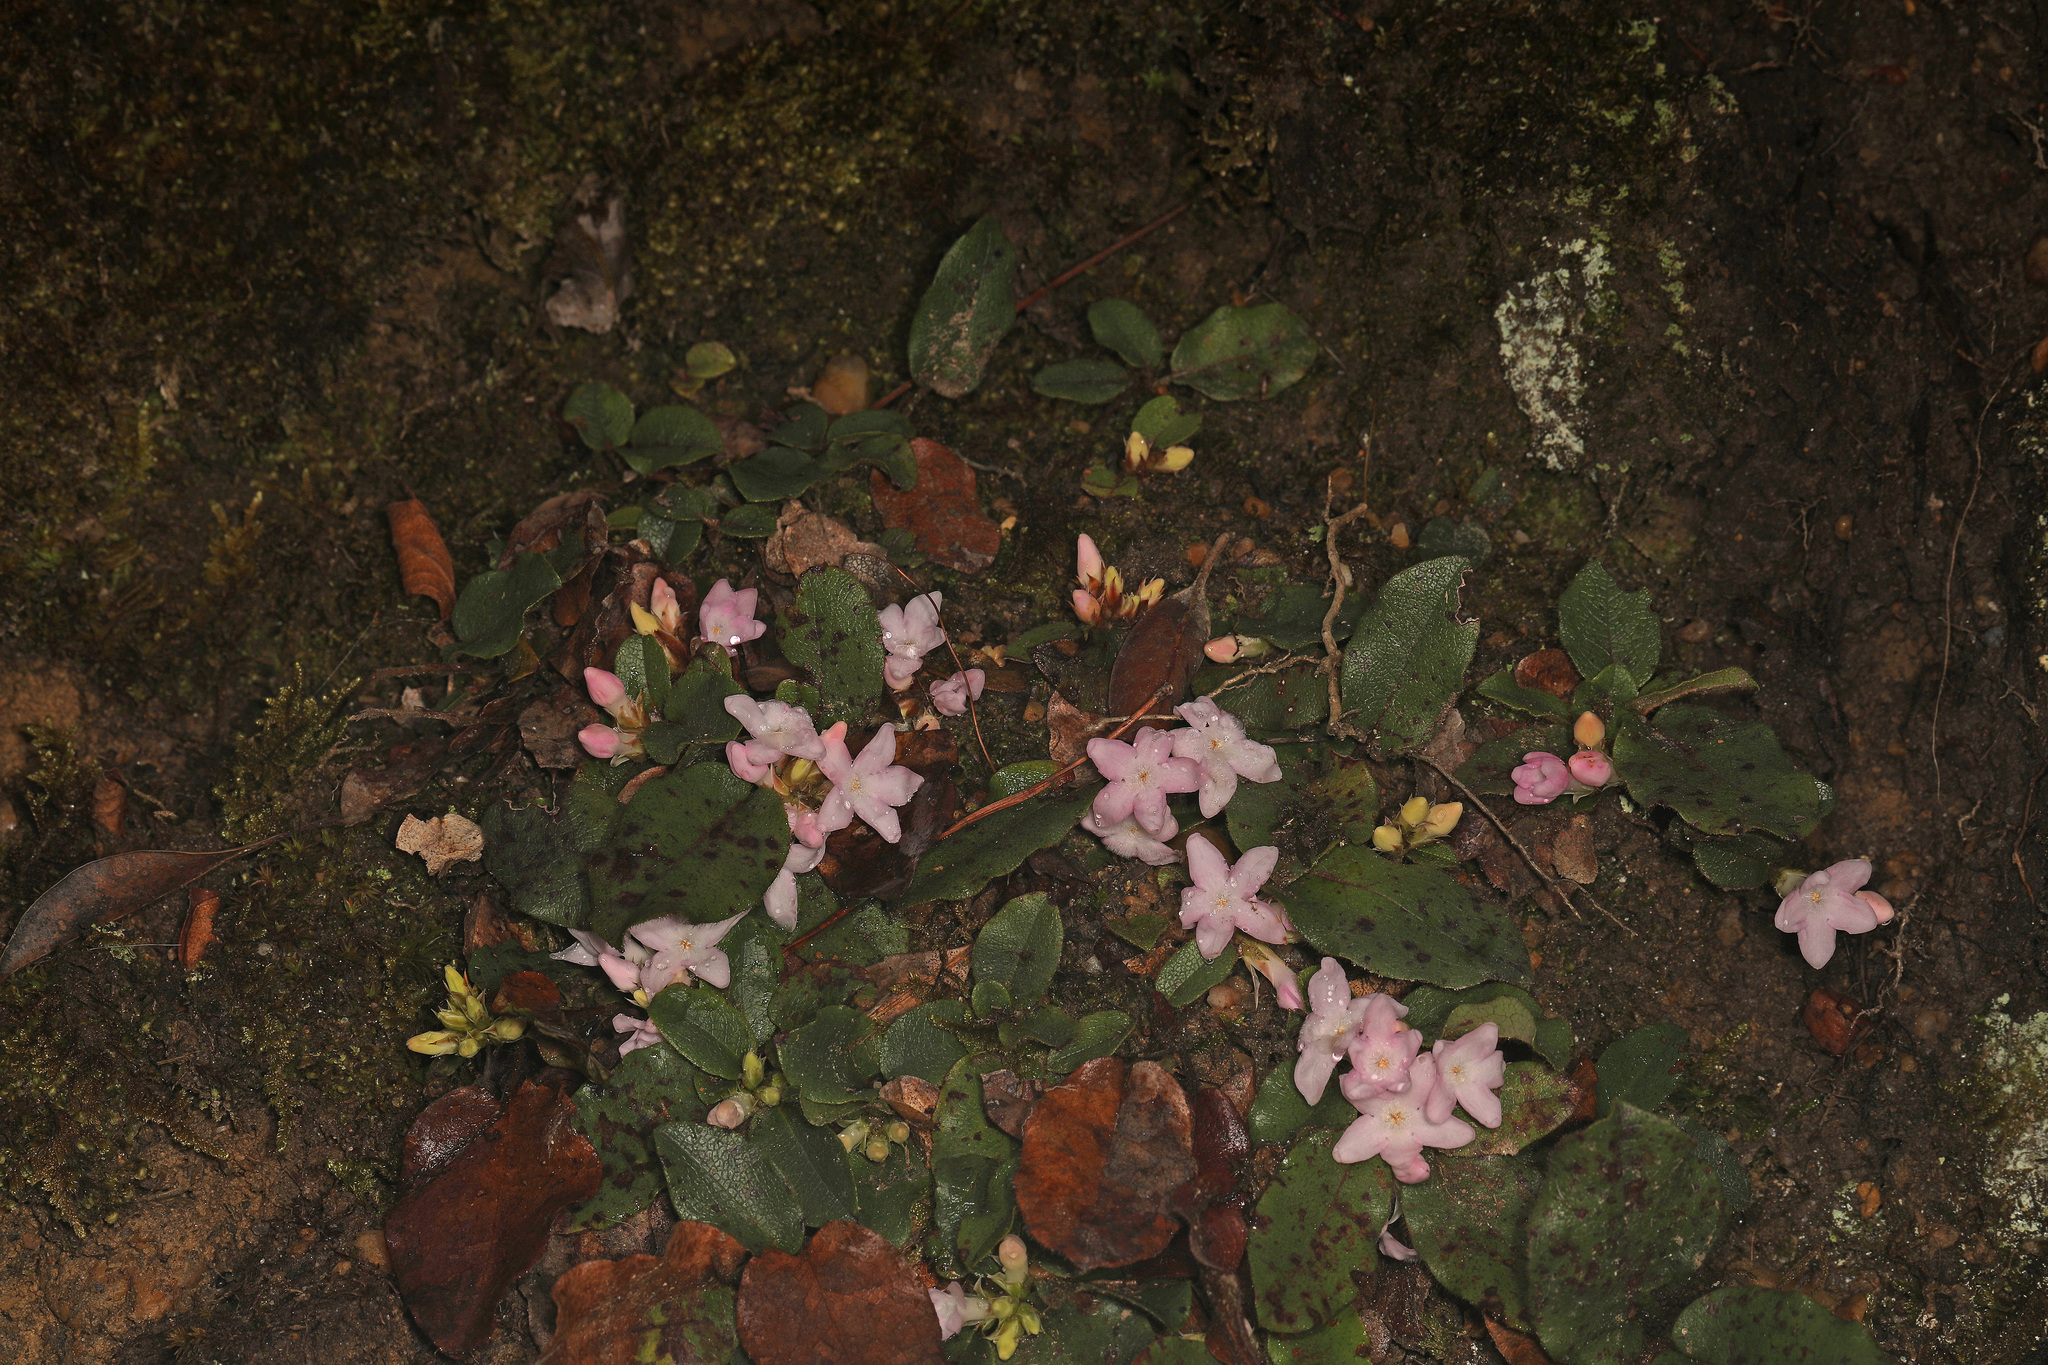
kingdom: Plantae
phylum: Tracheophyta
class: Magnoliopsida
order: Ericales
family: Ericaceae
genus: Epigaea
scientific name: Epigaea repens
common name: Gravelroot
